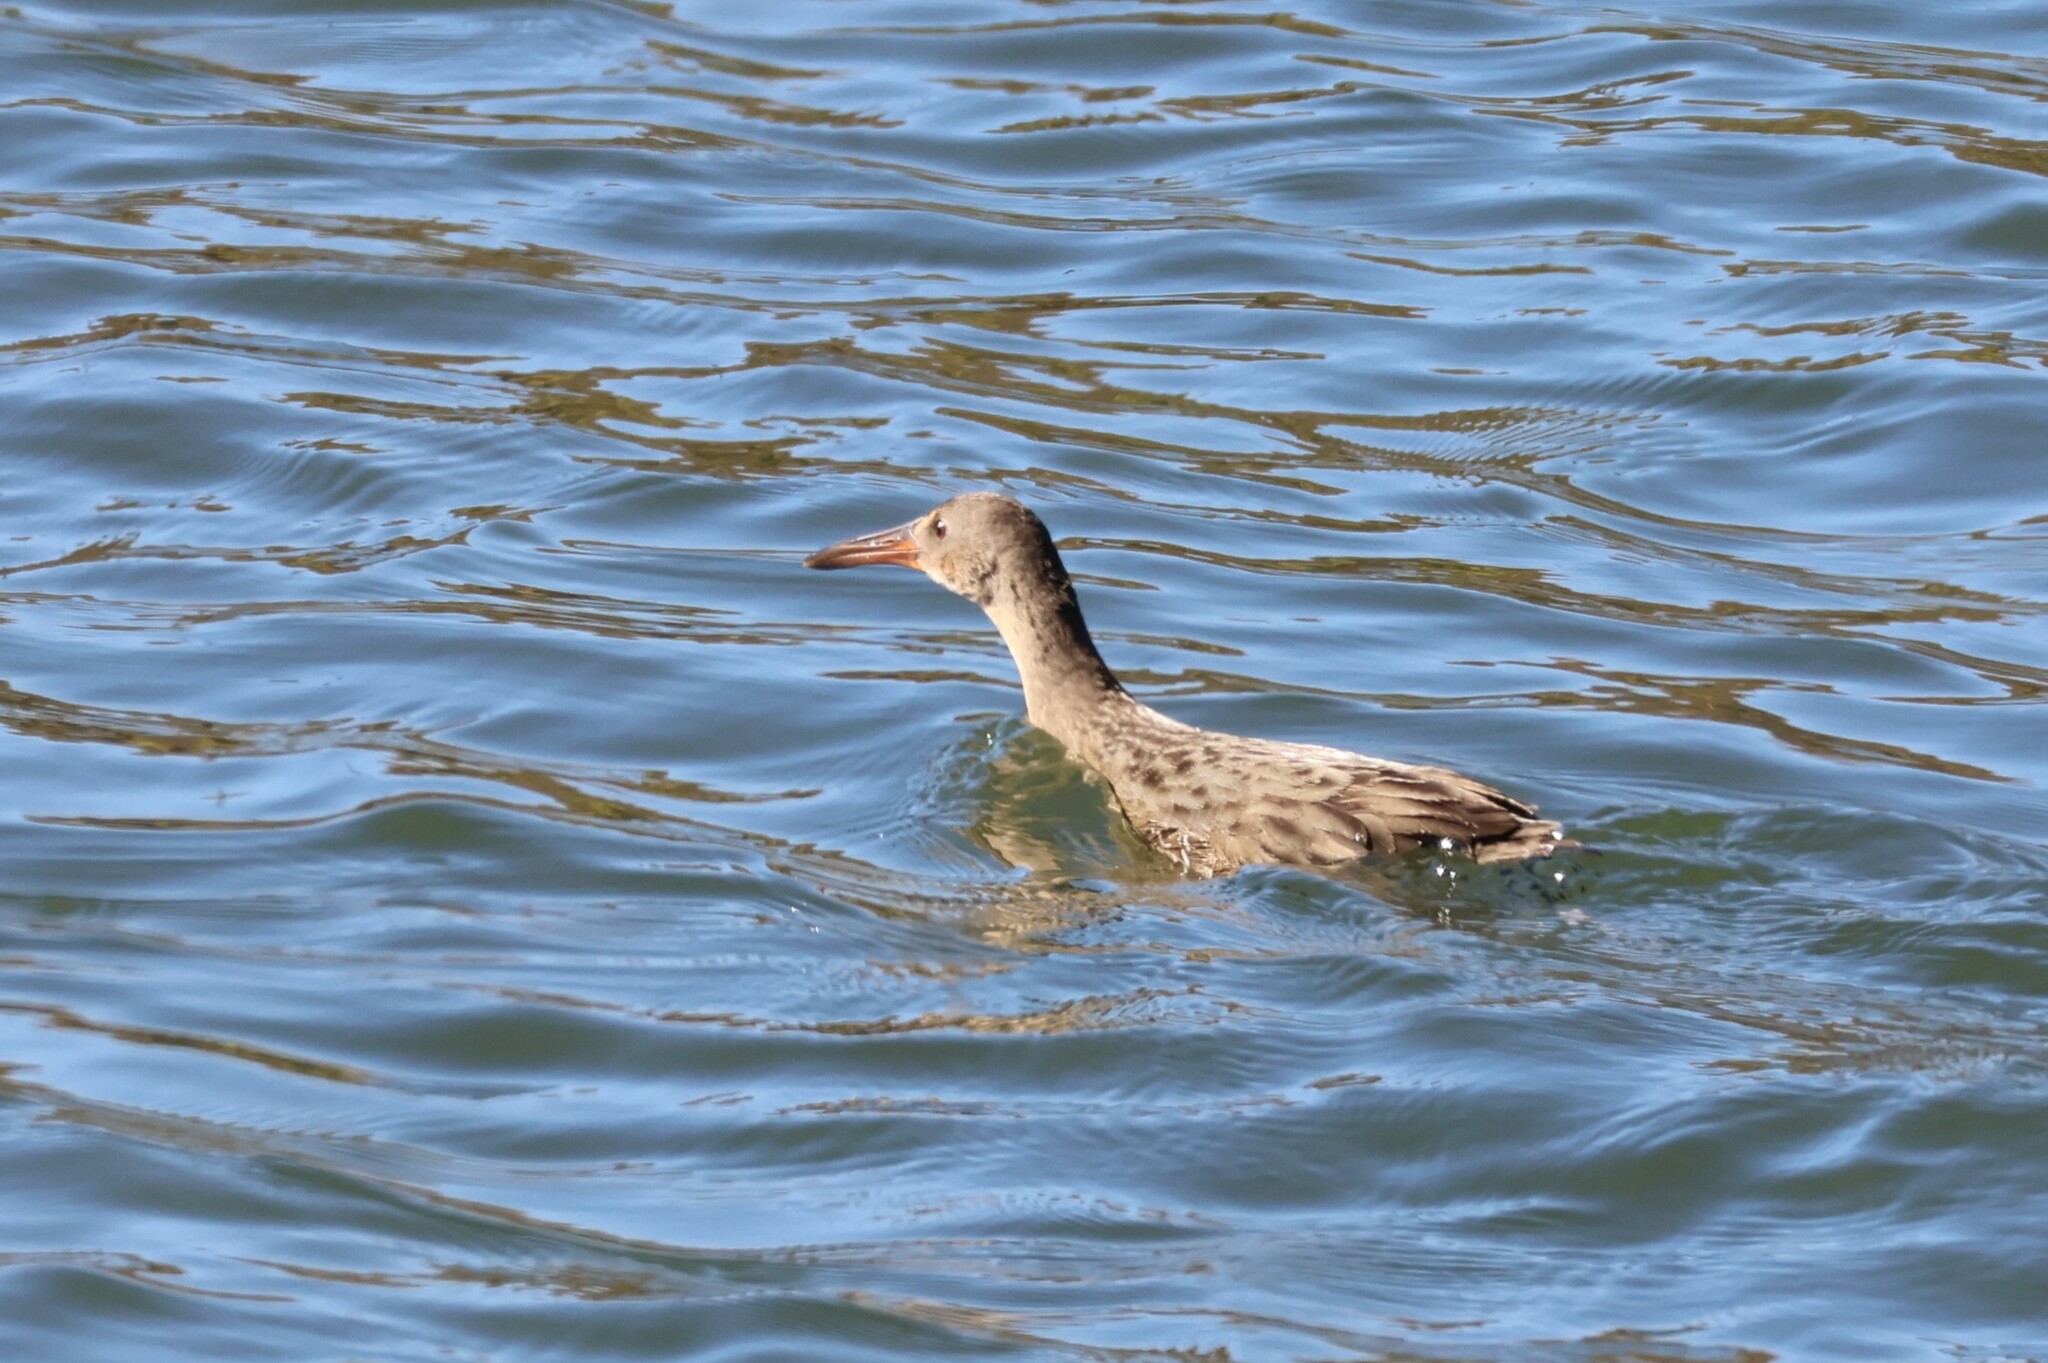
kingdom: Animalia
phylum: Chordata
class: Aves
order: Gruiformes
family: Rallidae
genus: Rallus
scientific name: Rallus obsoletus
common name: Ridgway's rail
